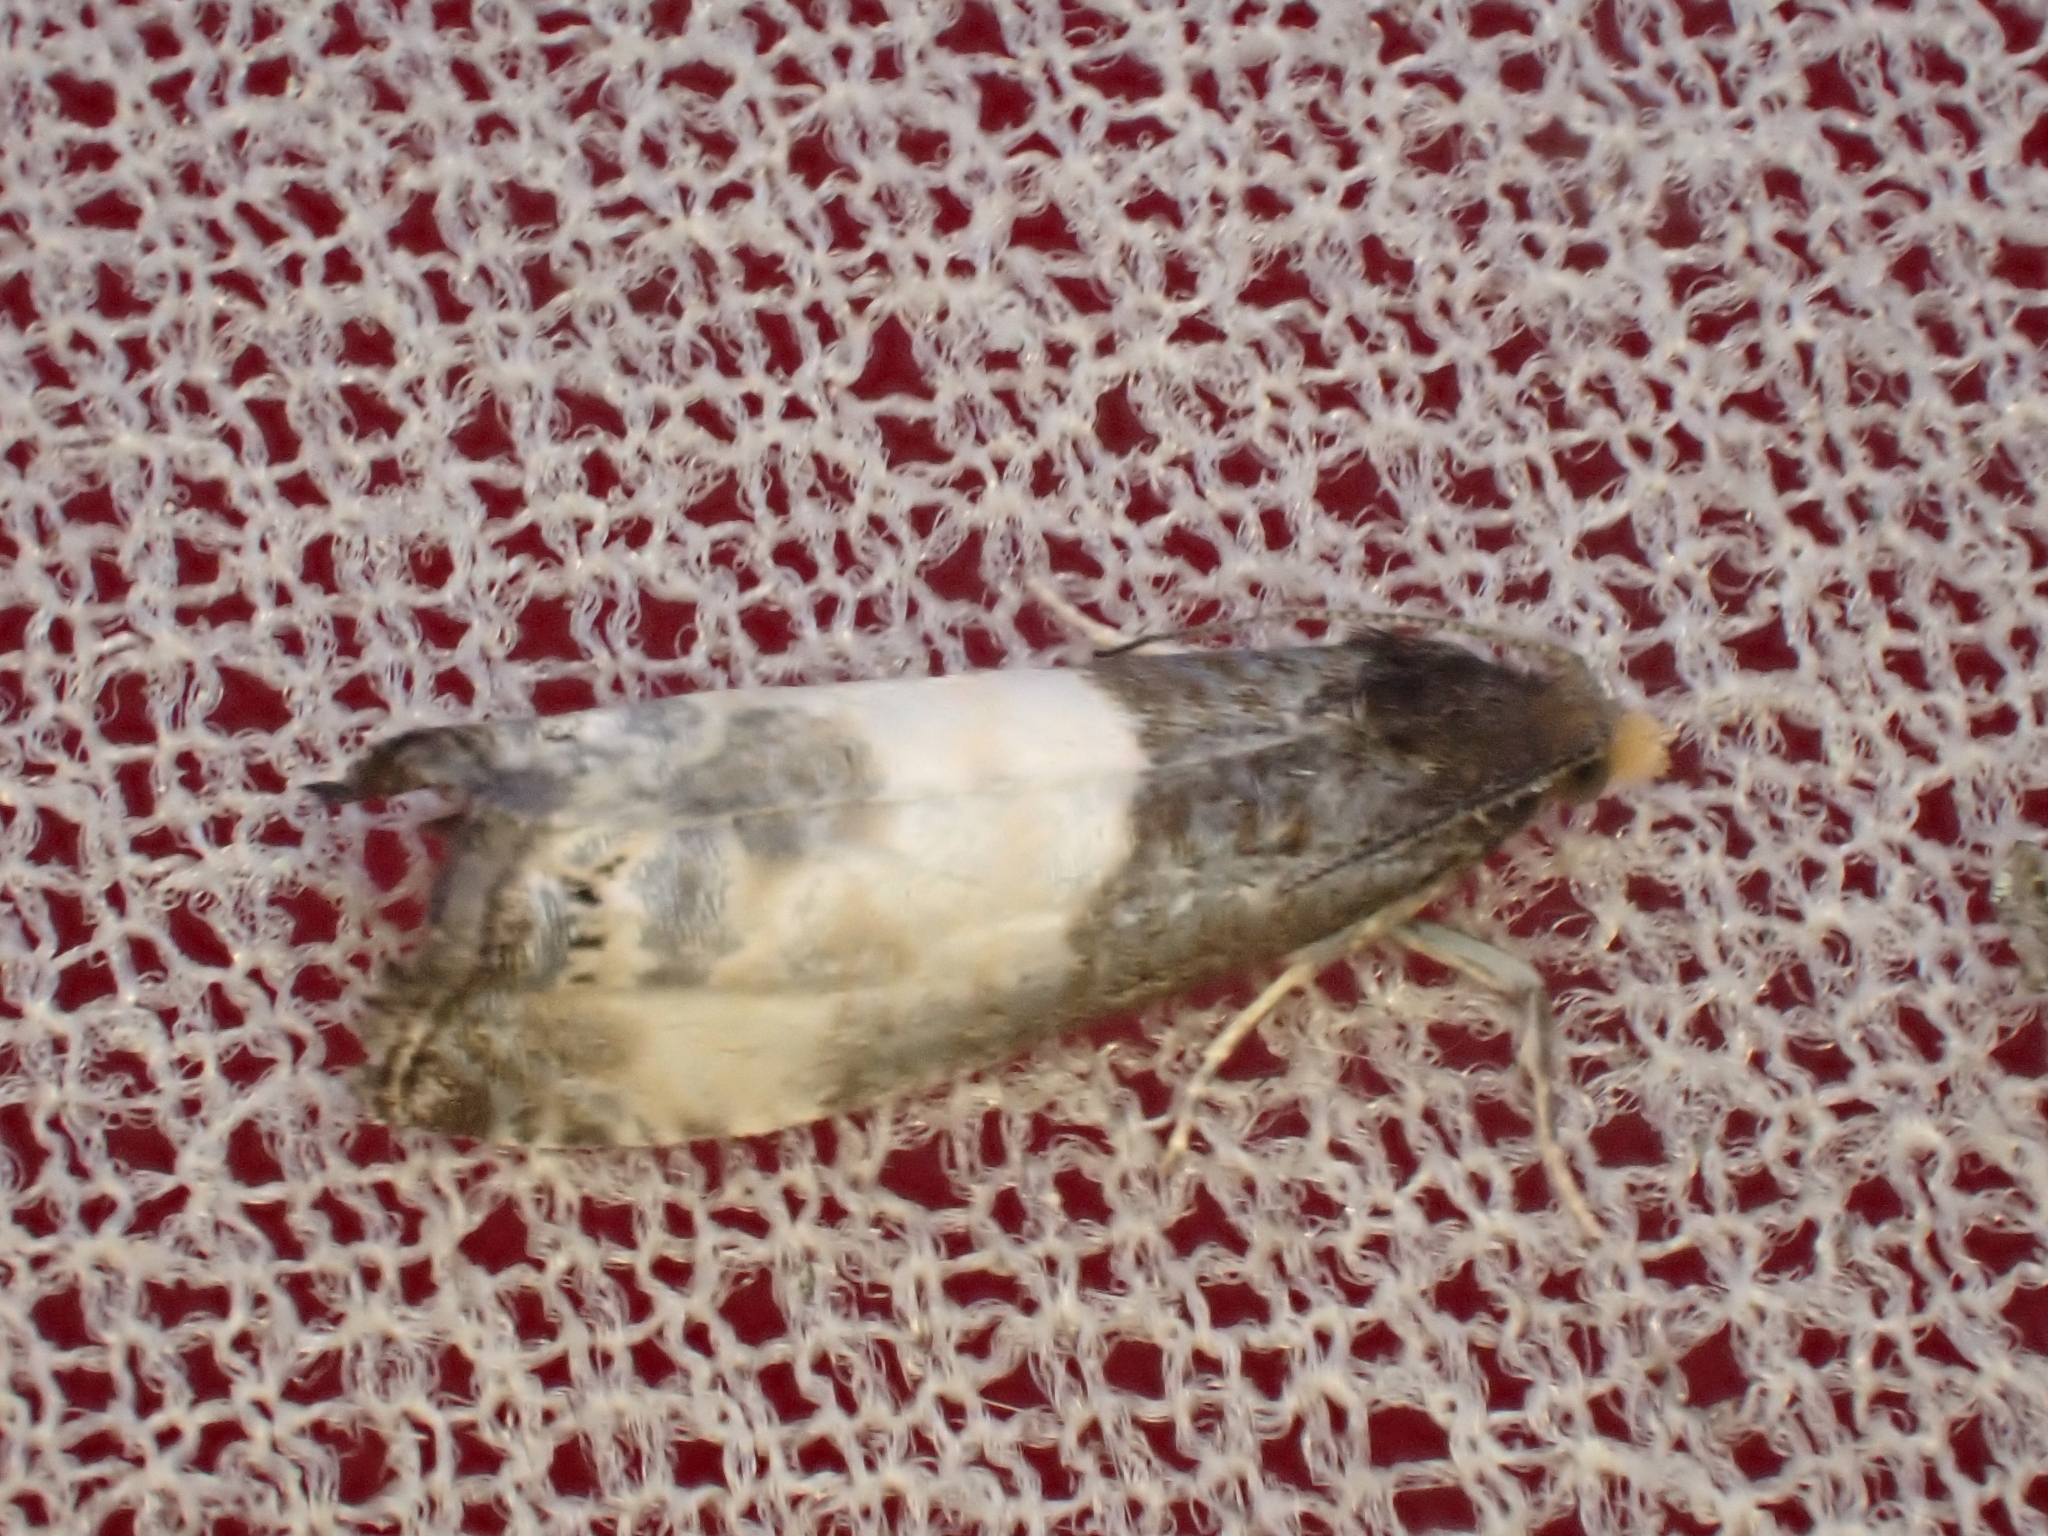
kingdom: Animalia
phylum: Arthropoda
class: Insecta
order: Lepidoptera
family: Tortricidae
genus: Notocelia
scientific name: Notocelia cynosbatella
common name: Yellow-faced bell moth
